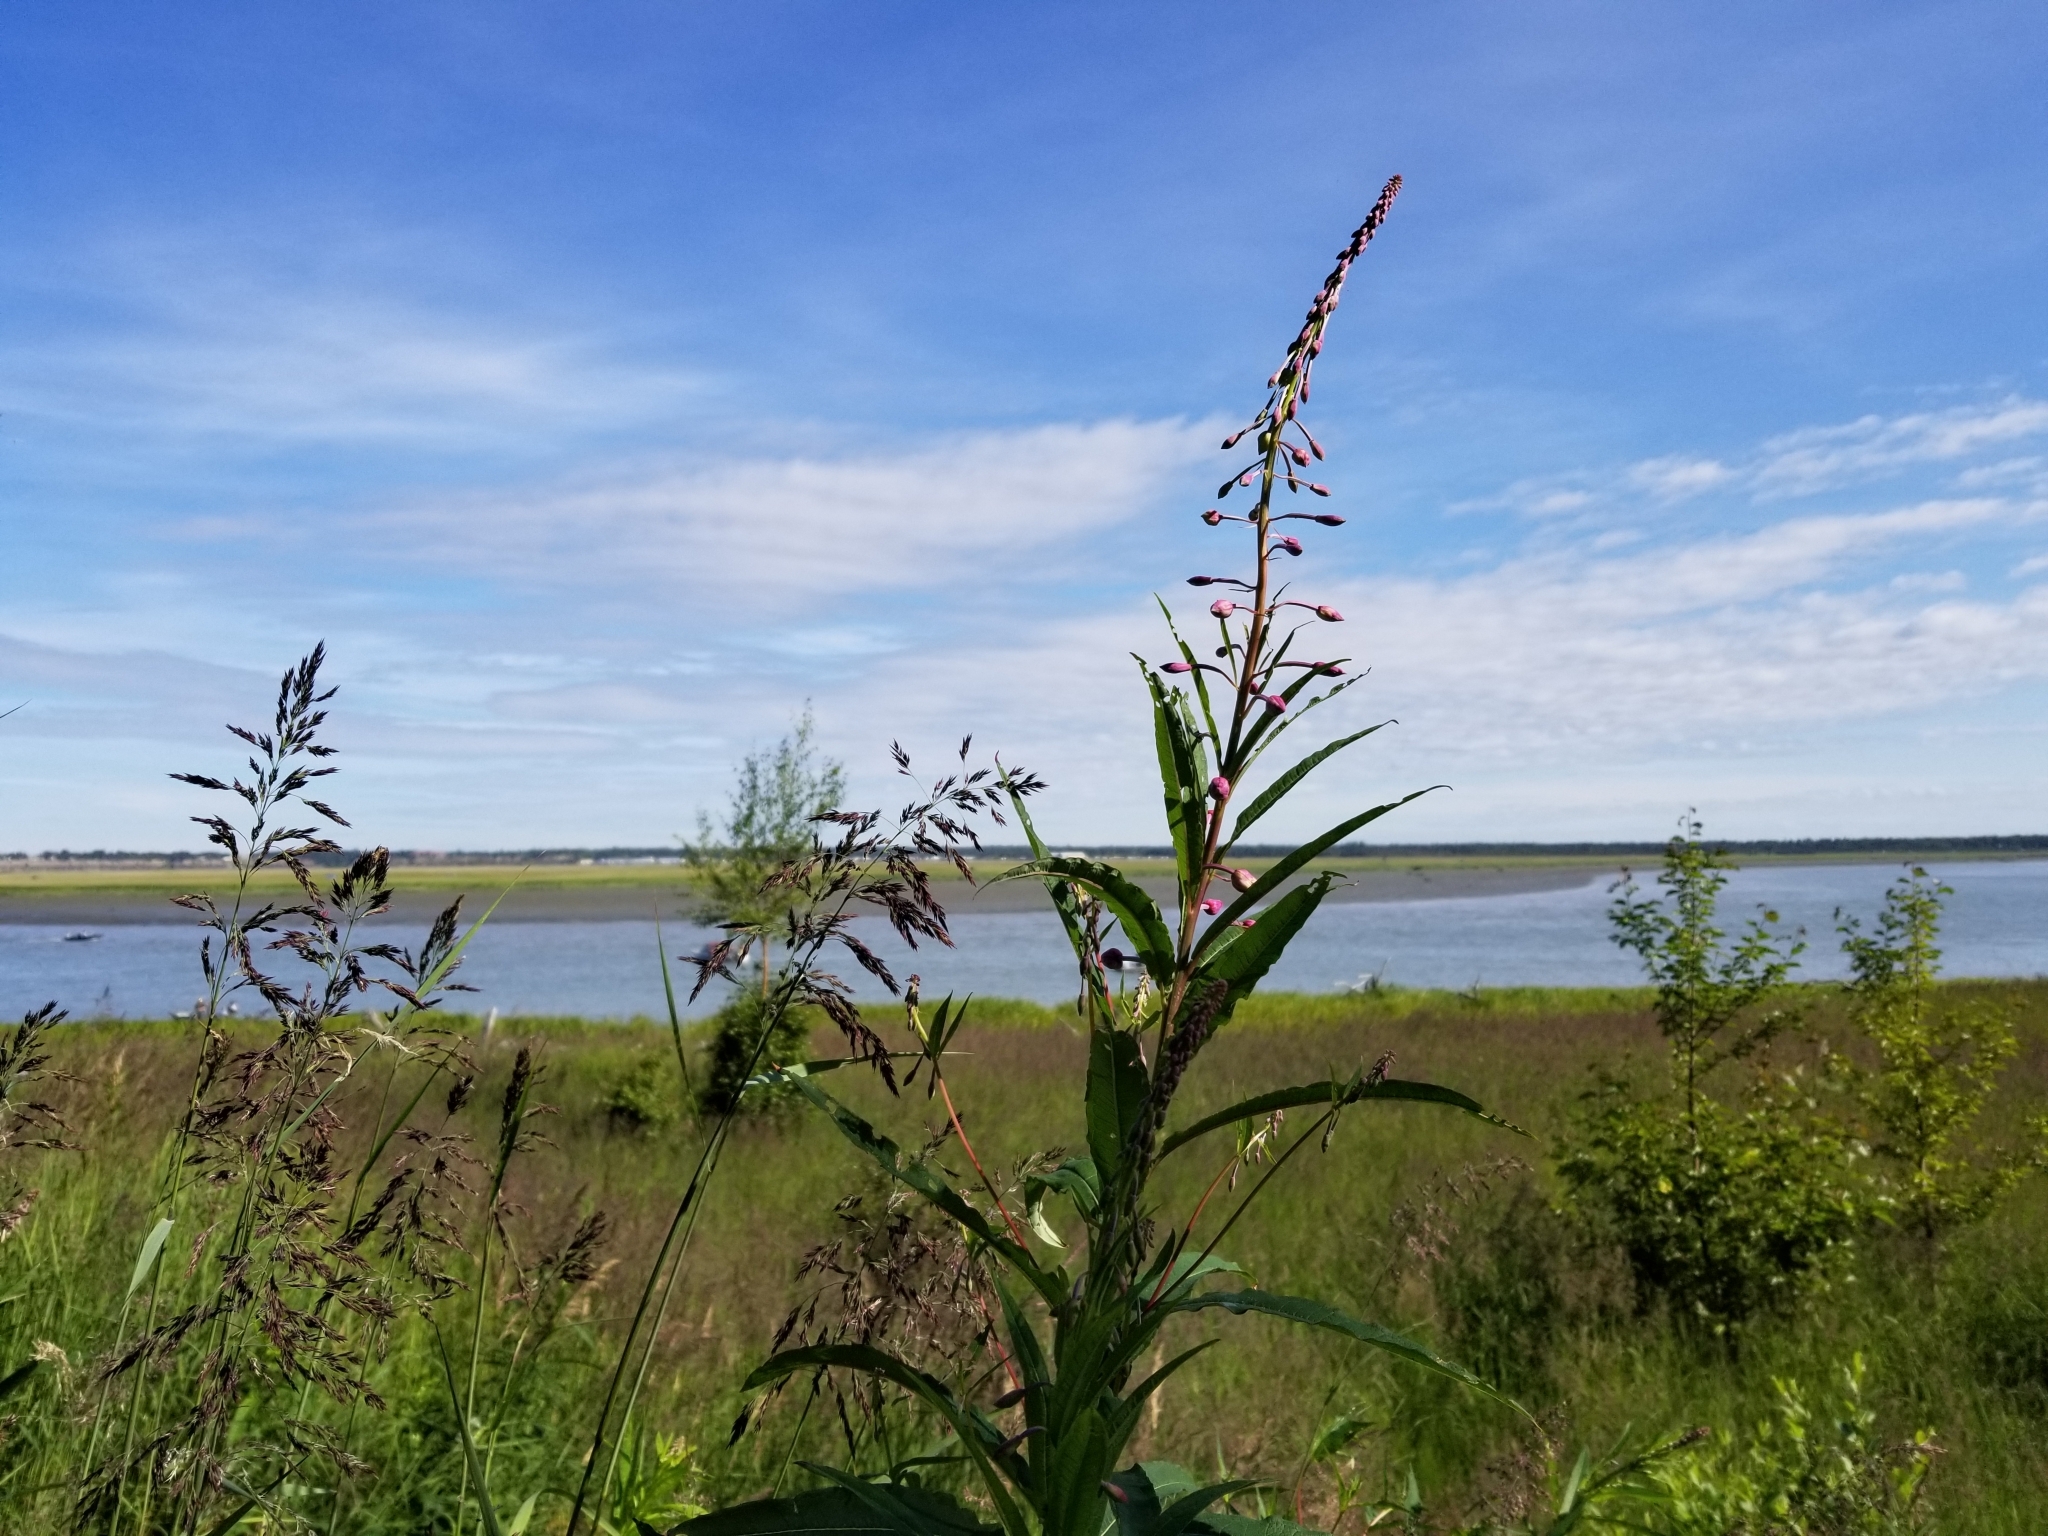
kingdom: Plantae
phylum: Tracheophyta
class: Magnoliopsida
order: Myrtales
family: Onagraceae
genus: Chamaenerion
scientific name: Chamaenerion angustifolium
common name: Fireweed
